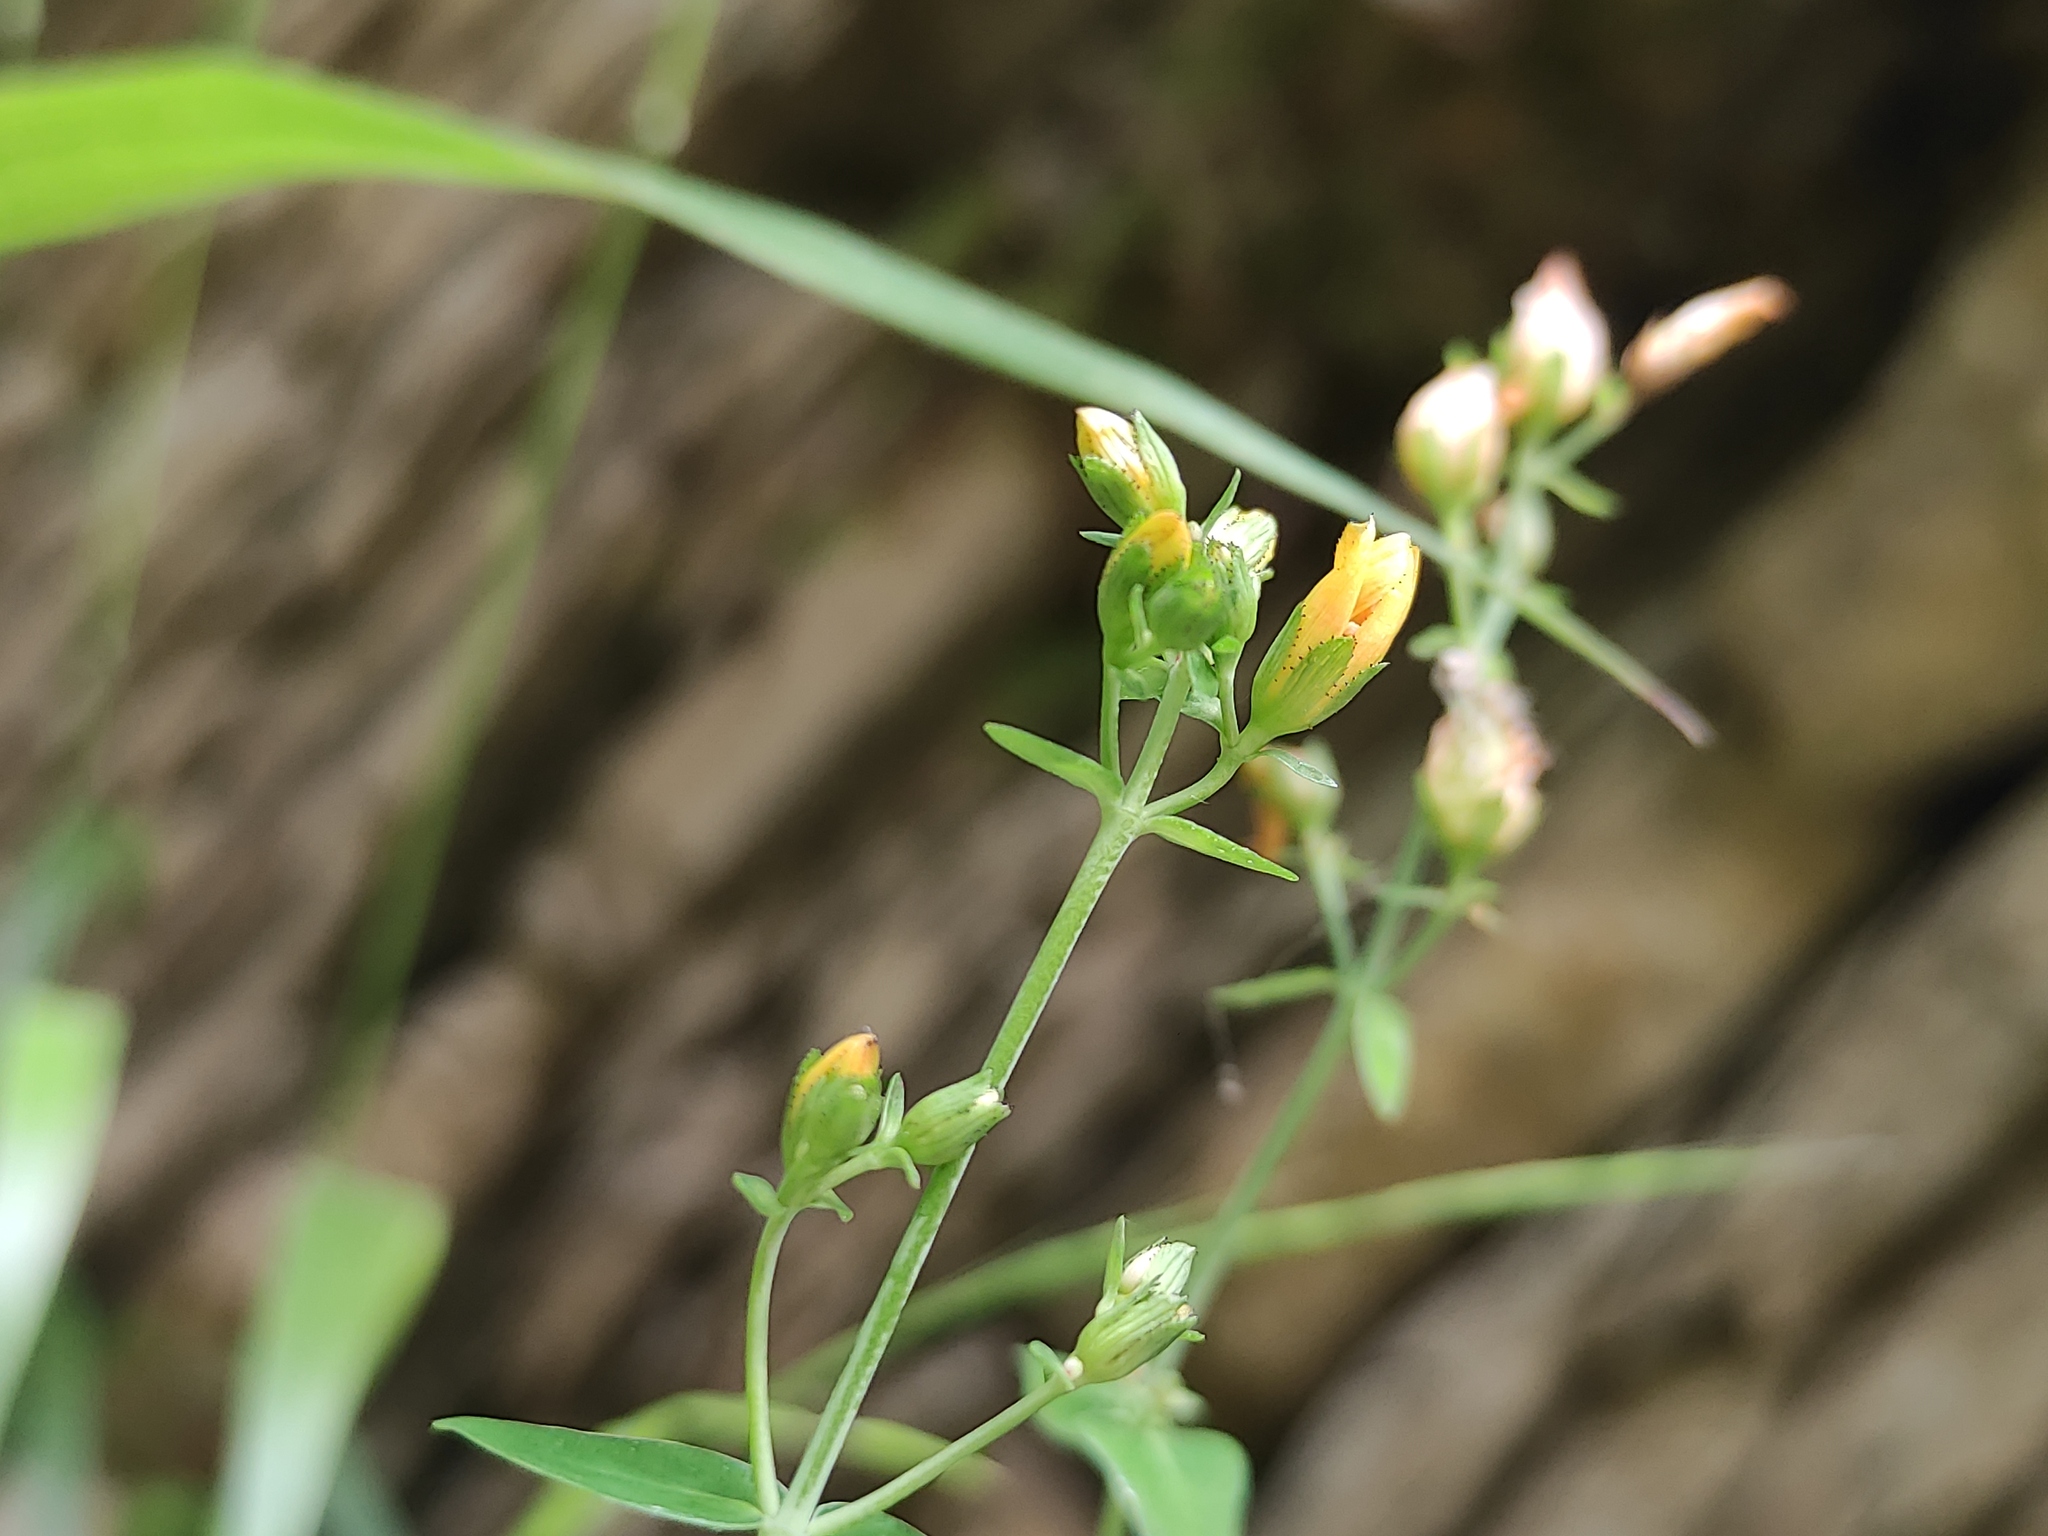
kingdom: Plantae
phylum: Tracheophyta
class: Magnoliopsida
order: Malpighiales
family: Hypericaceae
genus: Hypericum
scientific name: Hypericum pulchrum
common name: Slender st. john's-wort
